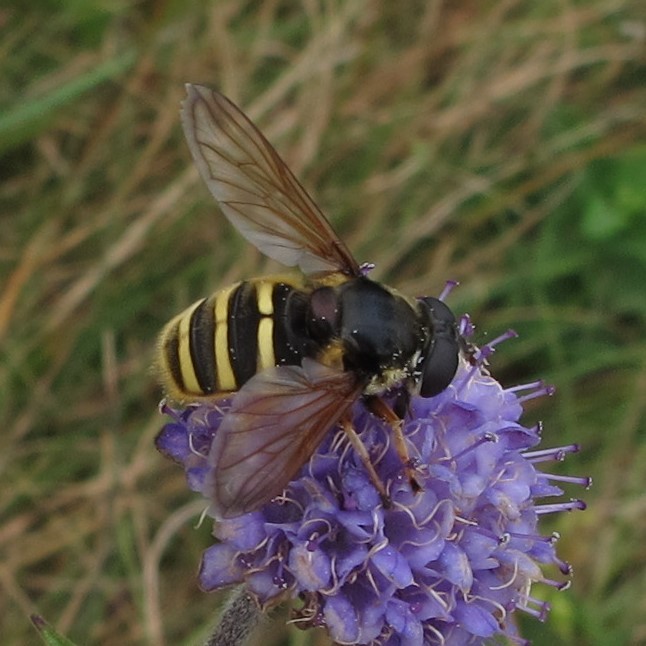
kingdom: Animalia
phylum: Arthropoda
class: Insecta
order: Diptera
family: Syrphidae
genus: Sericomyia
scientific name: Sericomyia silentis
